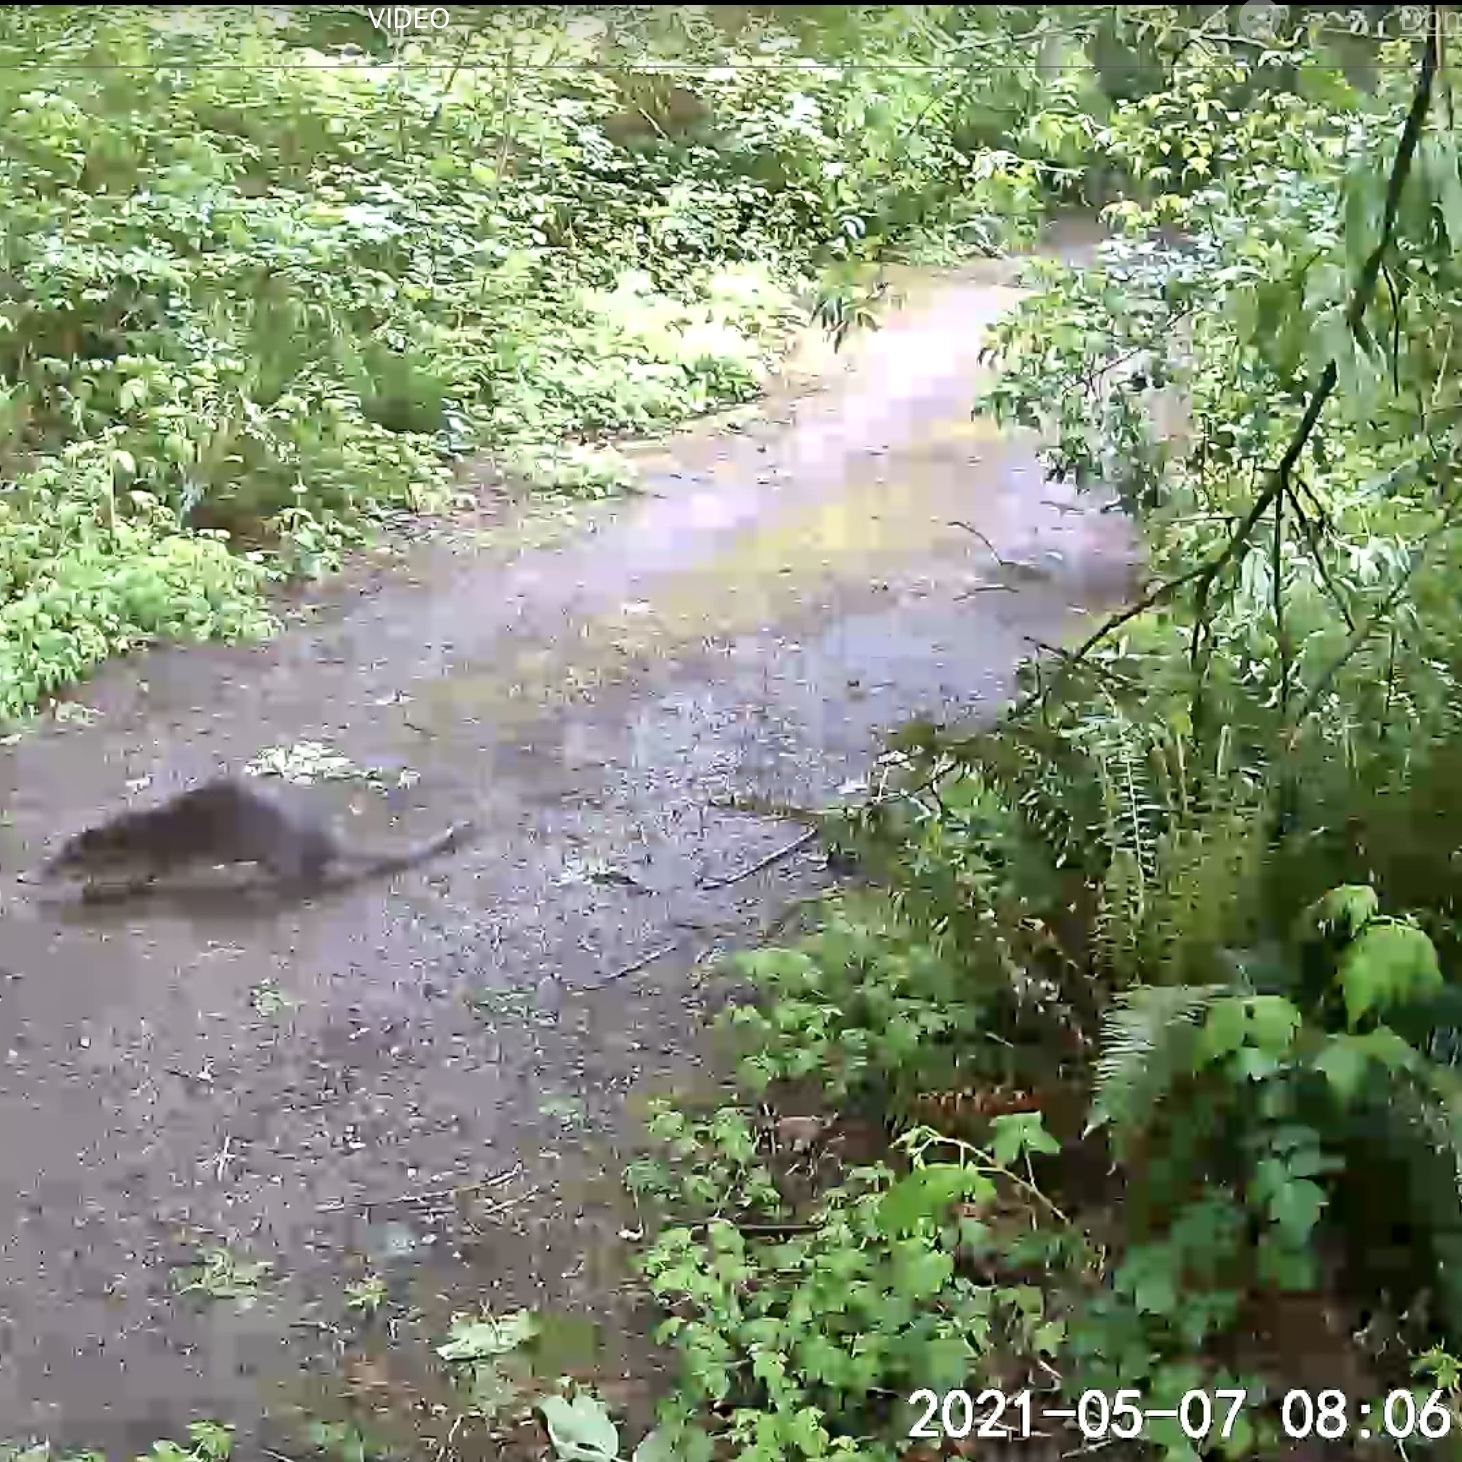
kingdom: Animalia
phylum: Chordata
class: Mammalia
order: Carnivora
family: Mustelidae
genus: Lontra
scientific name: Lontra canadensis
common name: North american river otter
